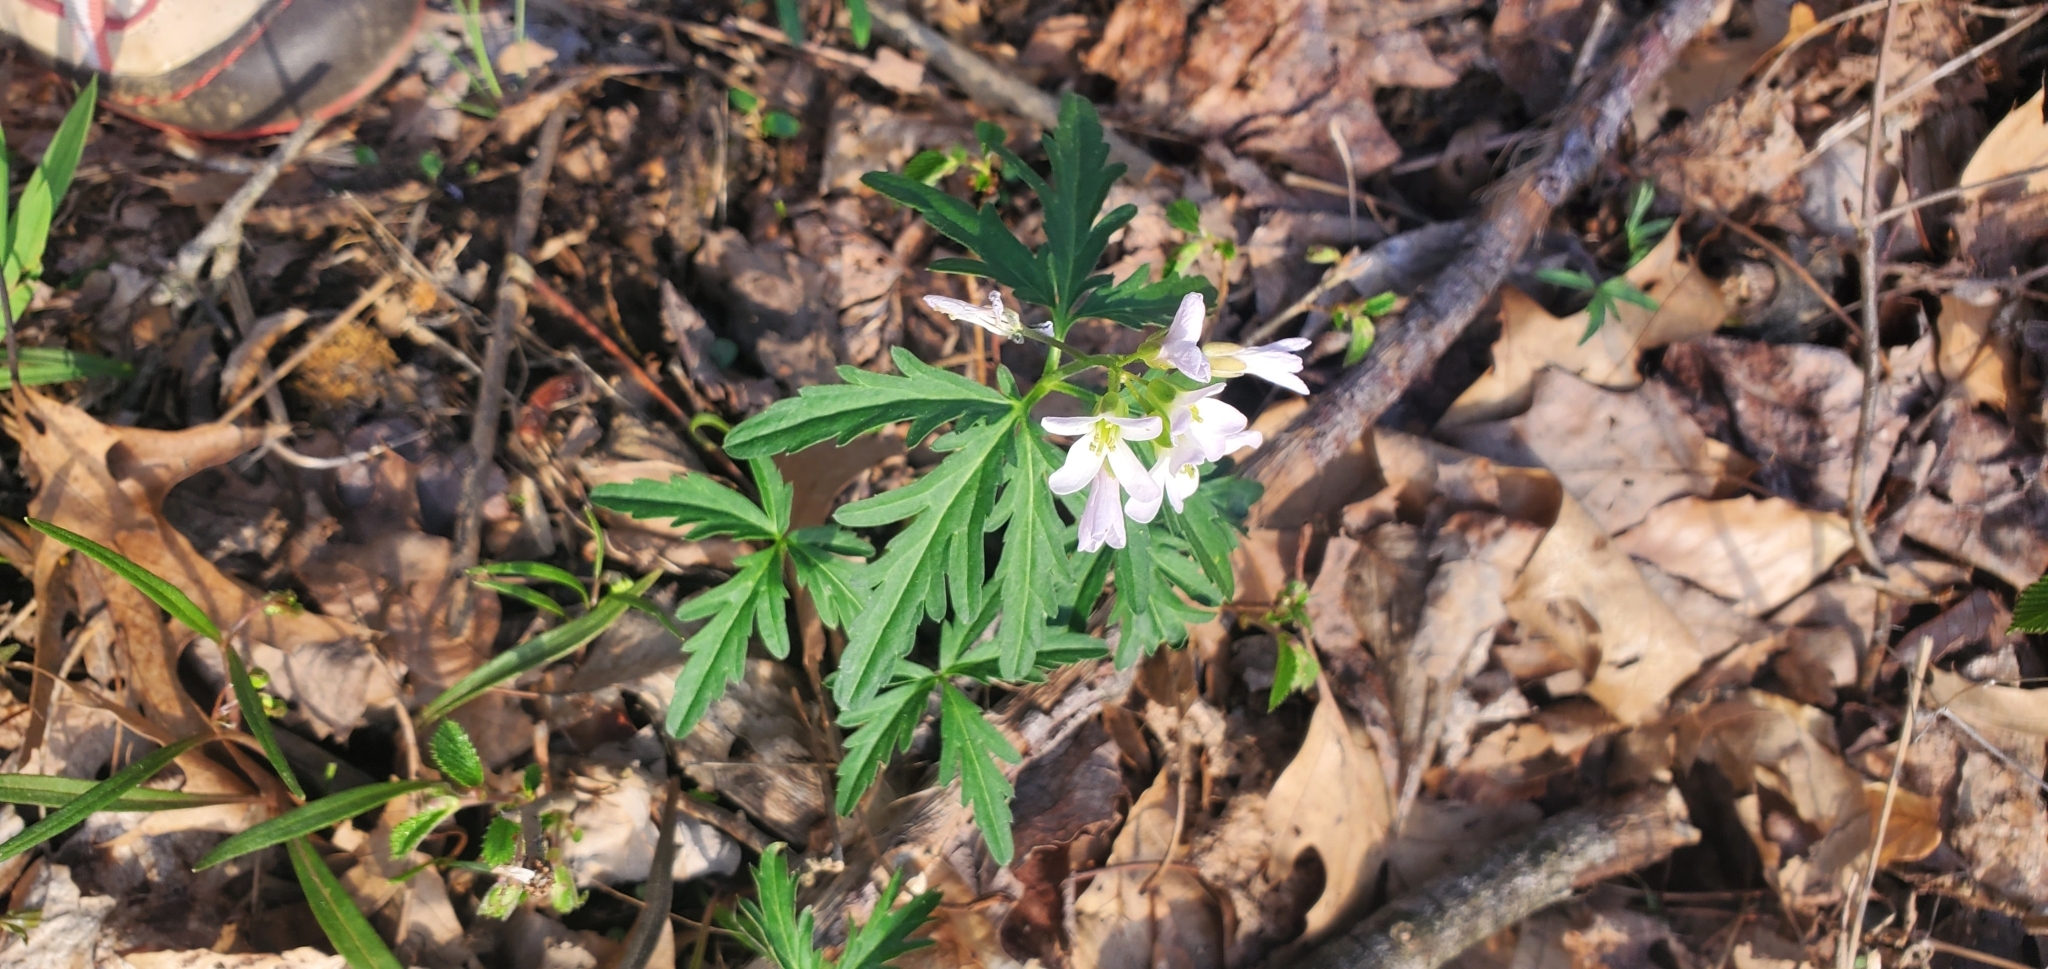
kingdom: Plantae
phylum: Tracheophyta
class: Magnoliopsida
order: Brassicales
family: Brassicaceae
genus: Cardamine
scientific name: Cardamine concatenata
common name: Cut-leaf toothcup
